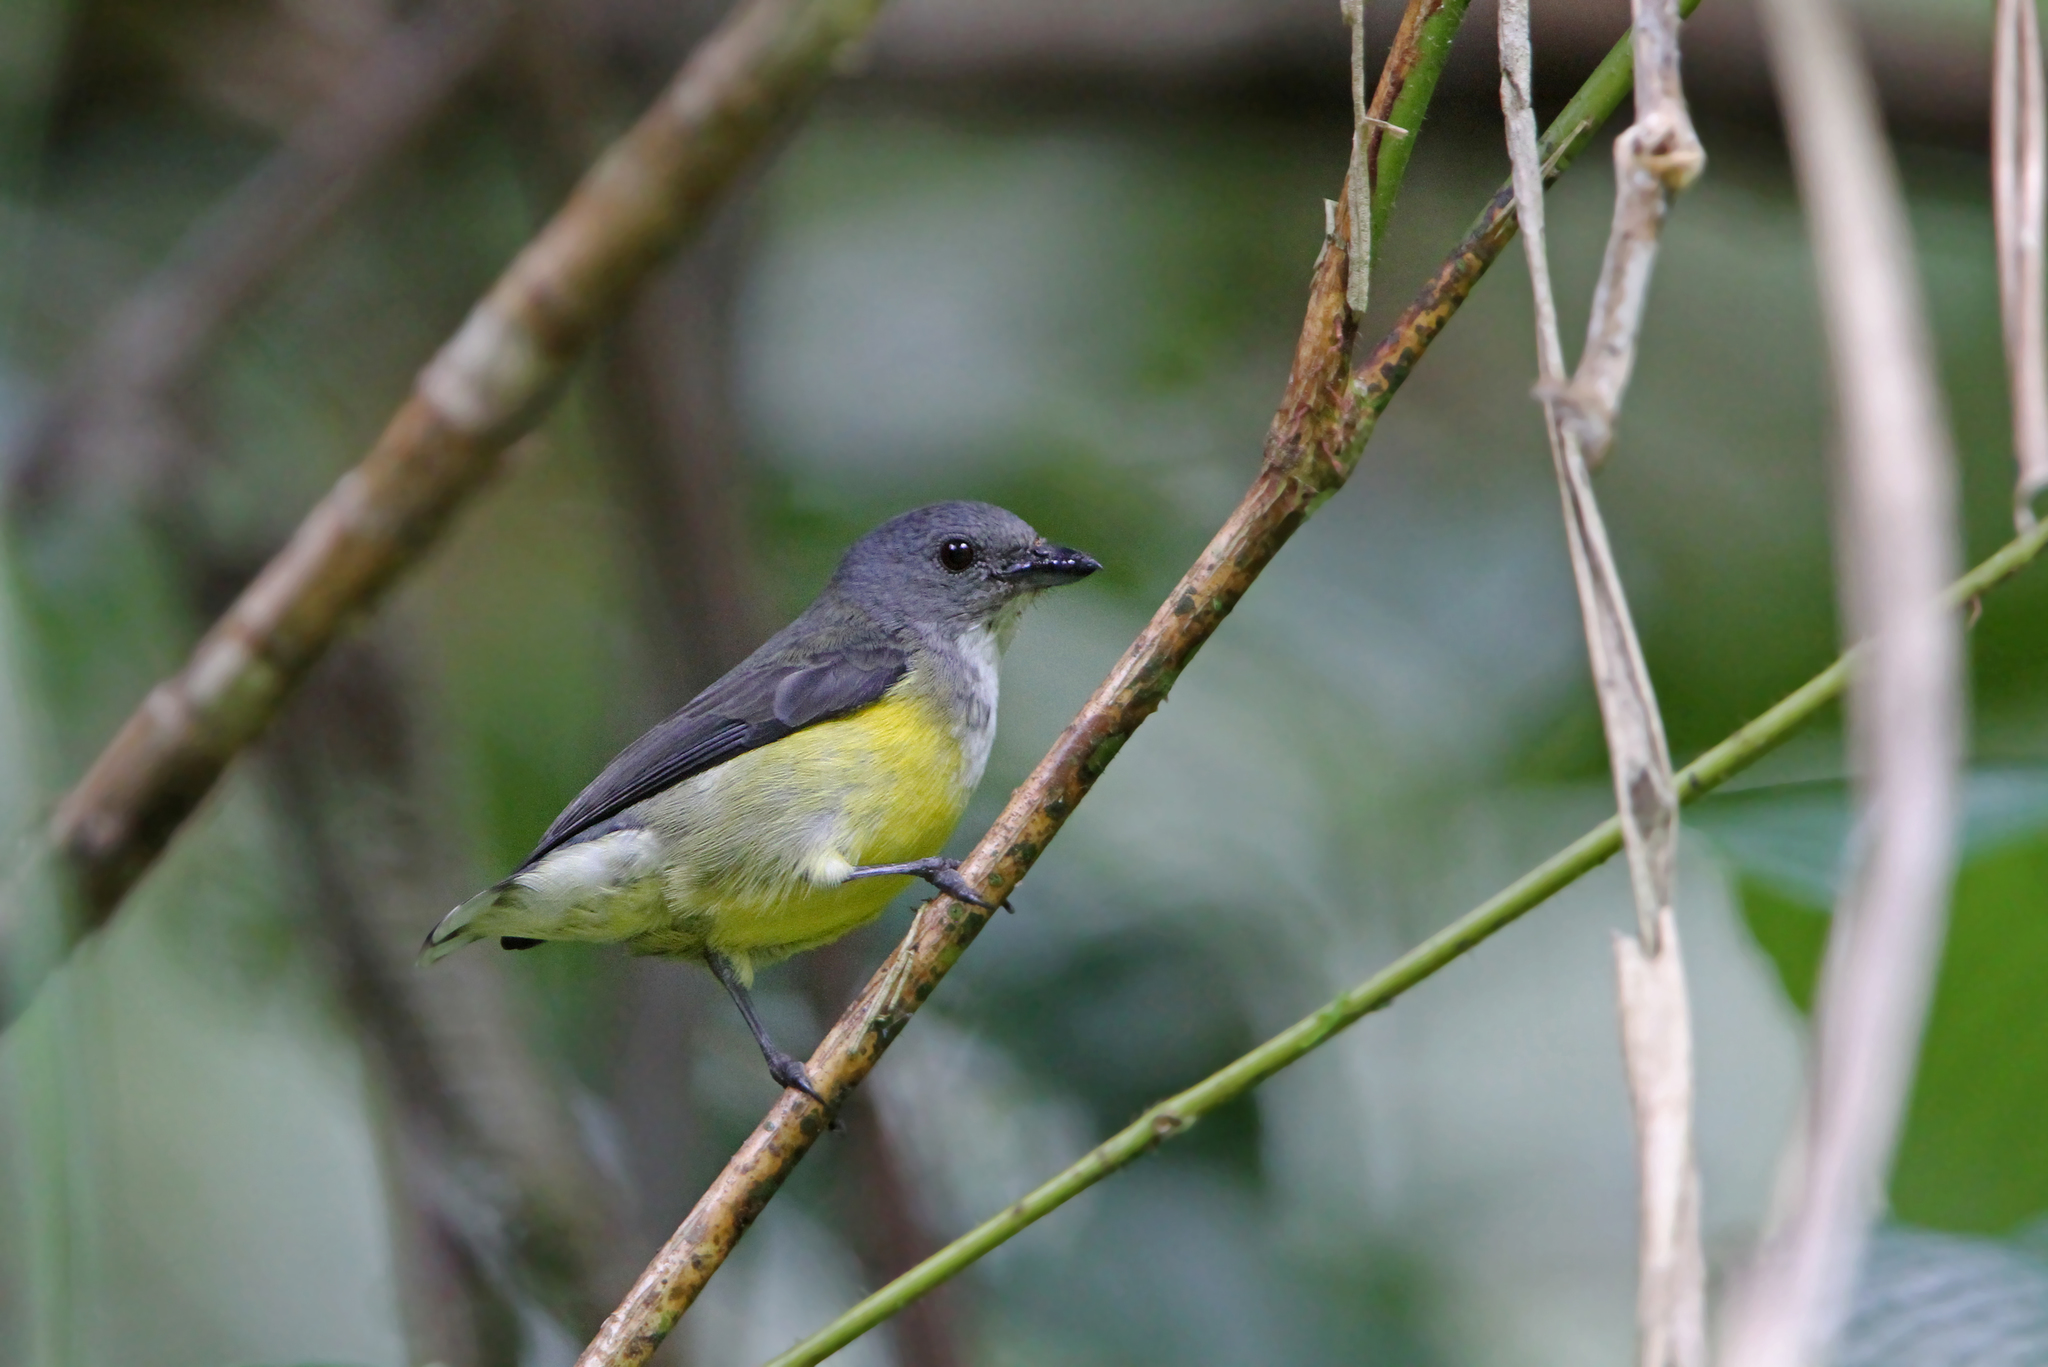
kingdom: Animalia
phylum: Chordata
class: Aves
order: Passeriformes
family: Dicaeidae
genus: Dicaeum
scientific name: Dicaeum vincens
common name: Legge's flowerpecker
